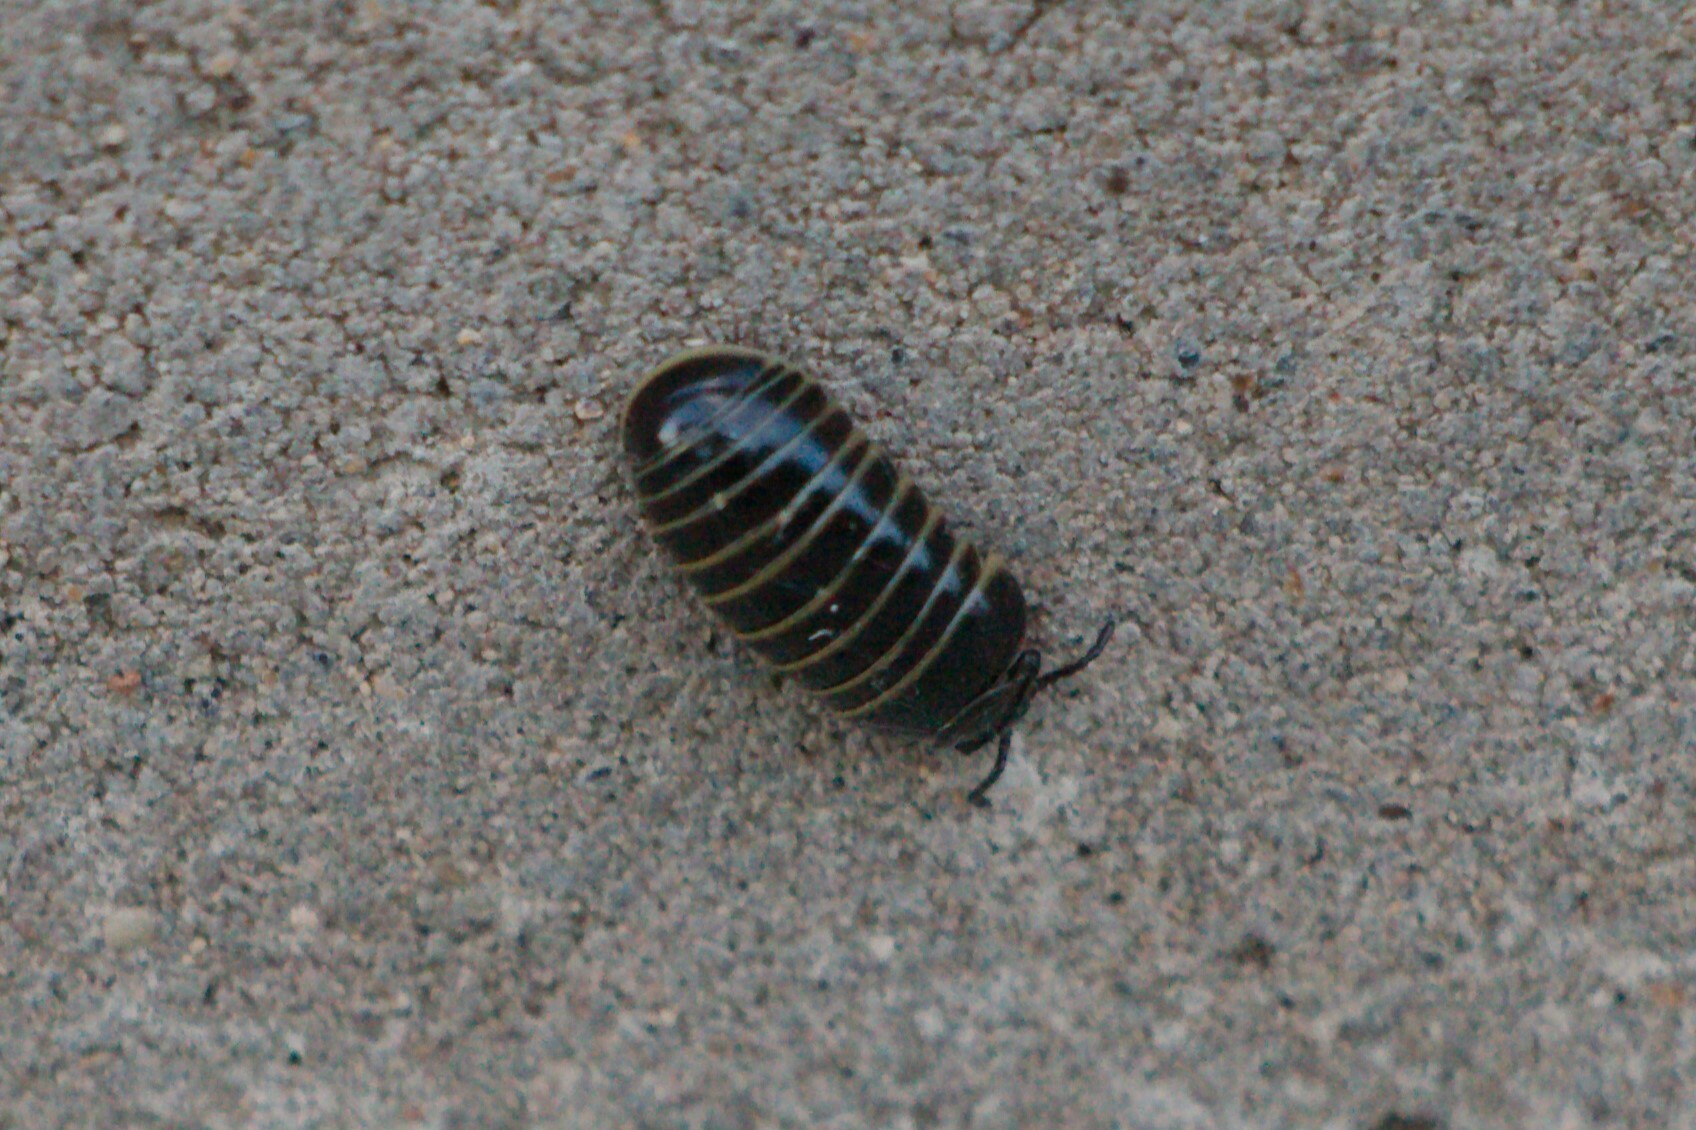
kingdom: Animalia
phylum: Arthropoda
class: Diplopoda
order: Glomerida
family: Glomeridae
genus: Glomeris
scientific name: Glomeris marginata
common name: Bordered pill millipede
